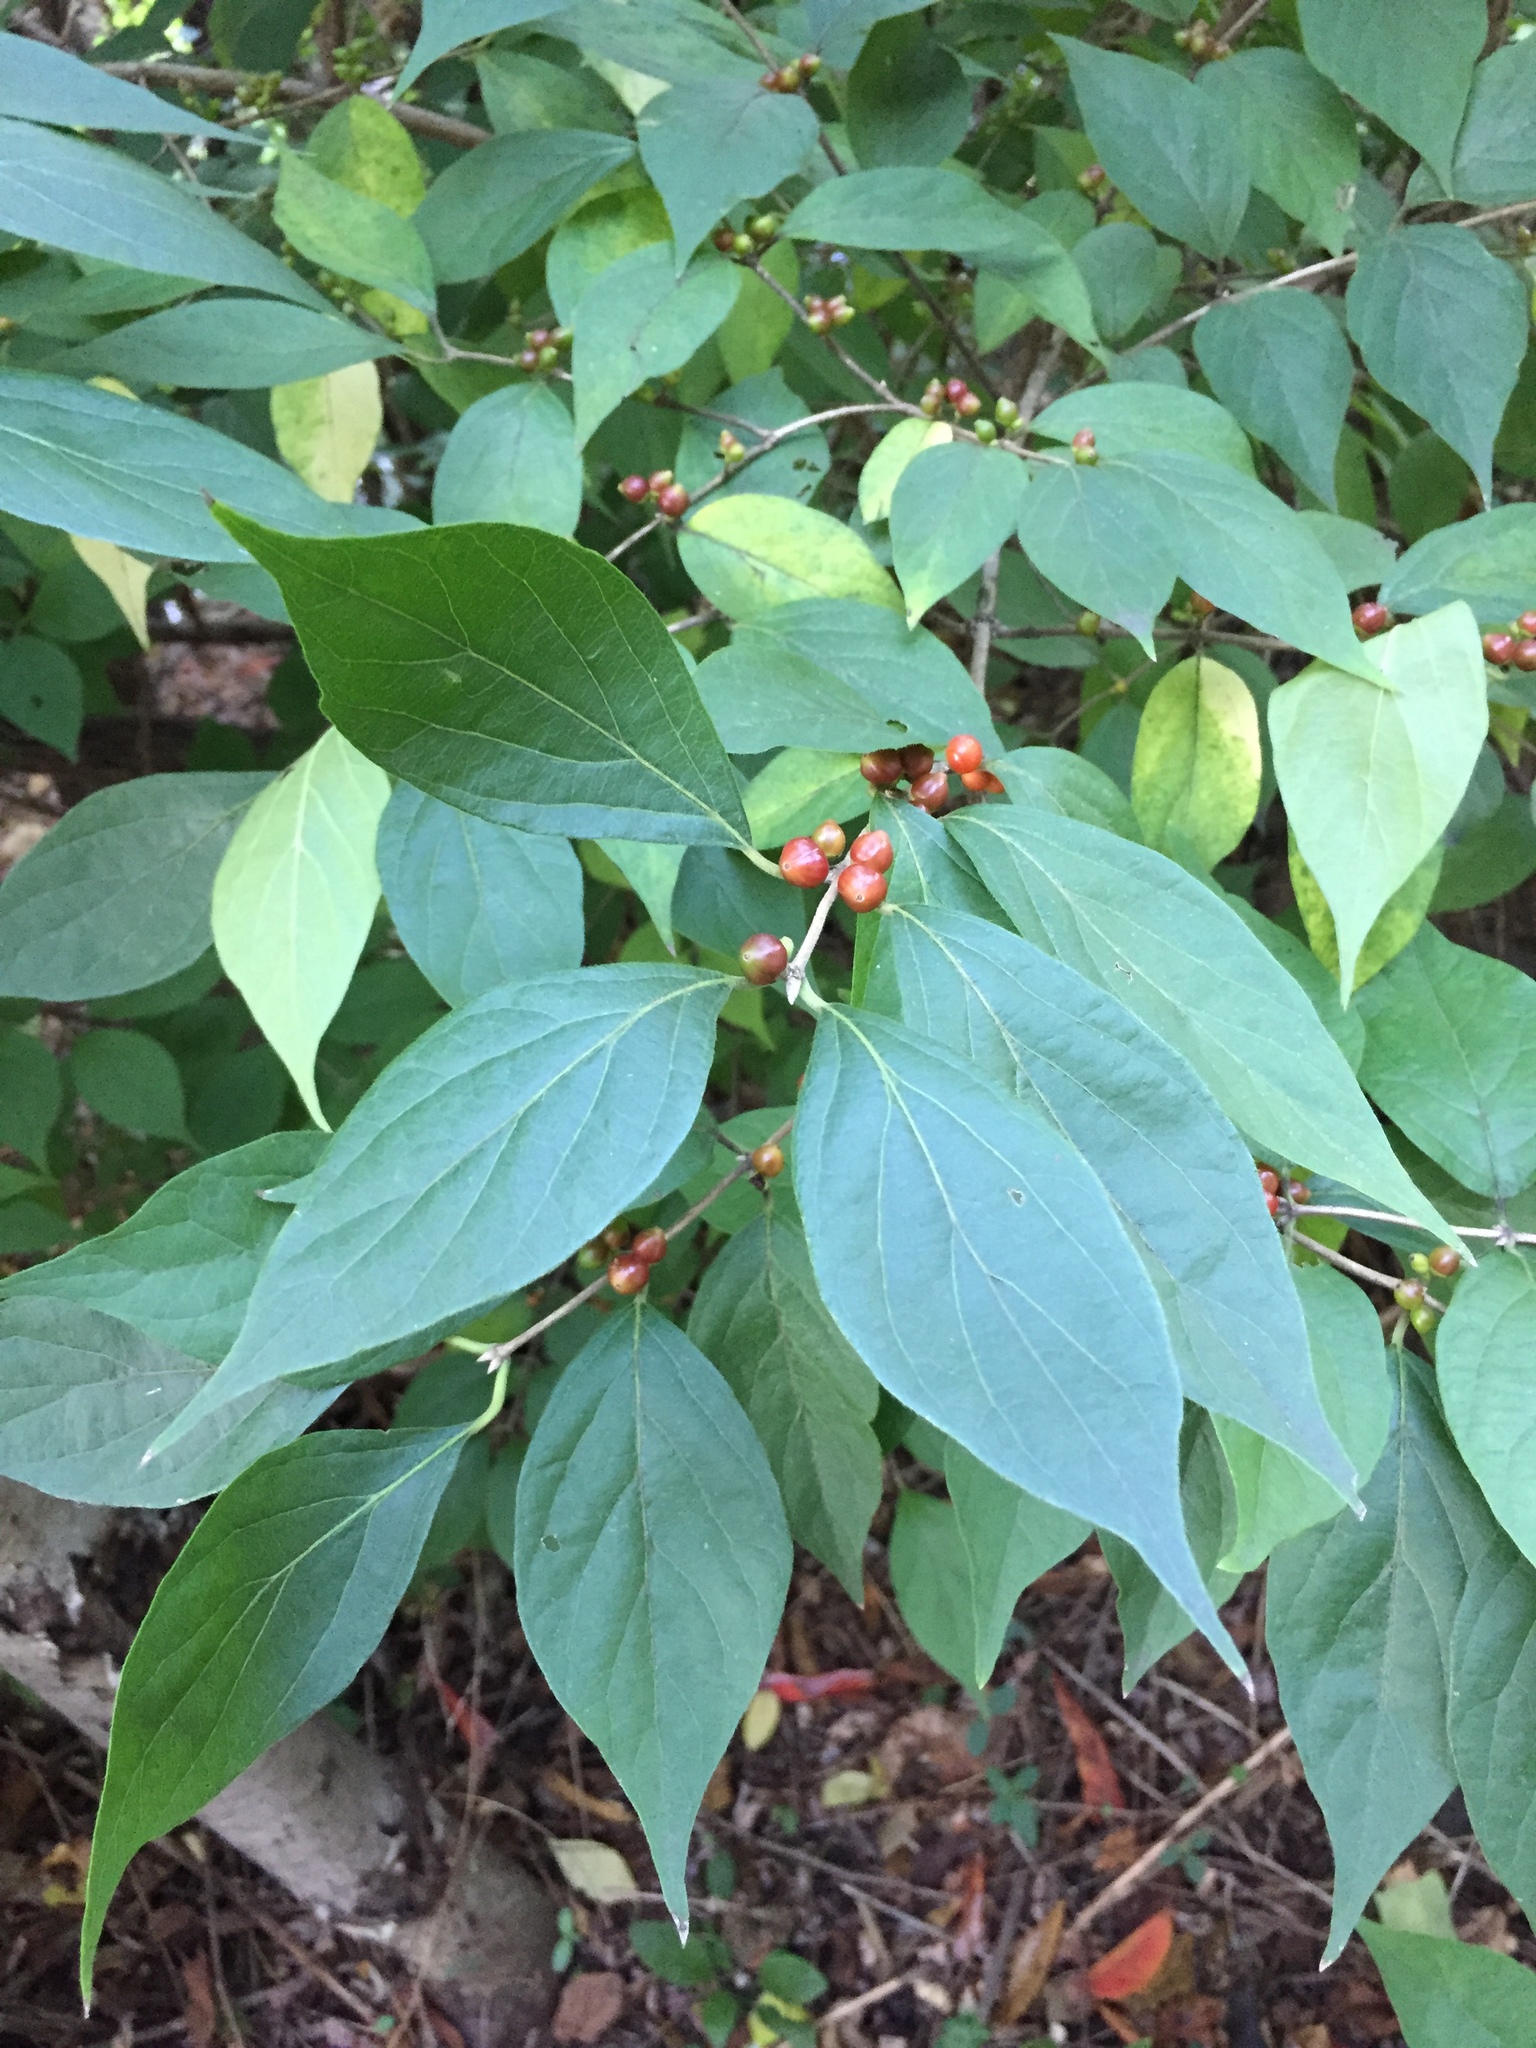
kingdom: Plantae
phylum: Tracheophyta
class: Magnoliopsida
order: Dipsacales
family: Caprifoliaceae
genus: Lonicera
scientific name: Lonicera maackii
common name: Amur honeysuckle
